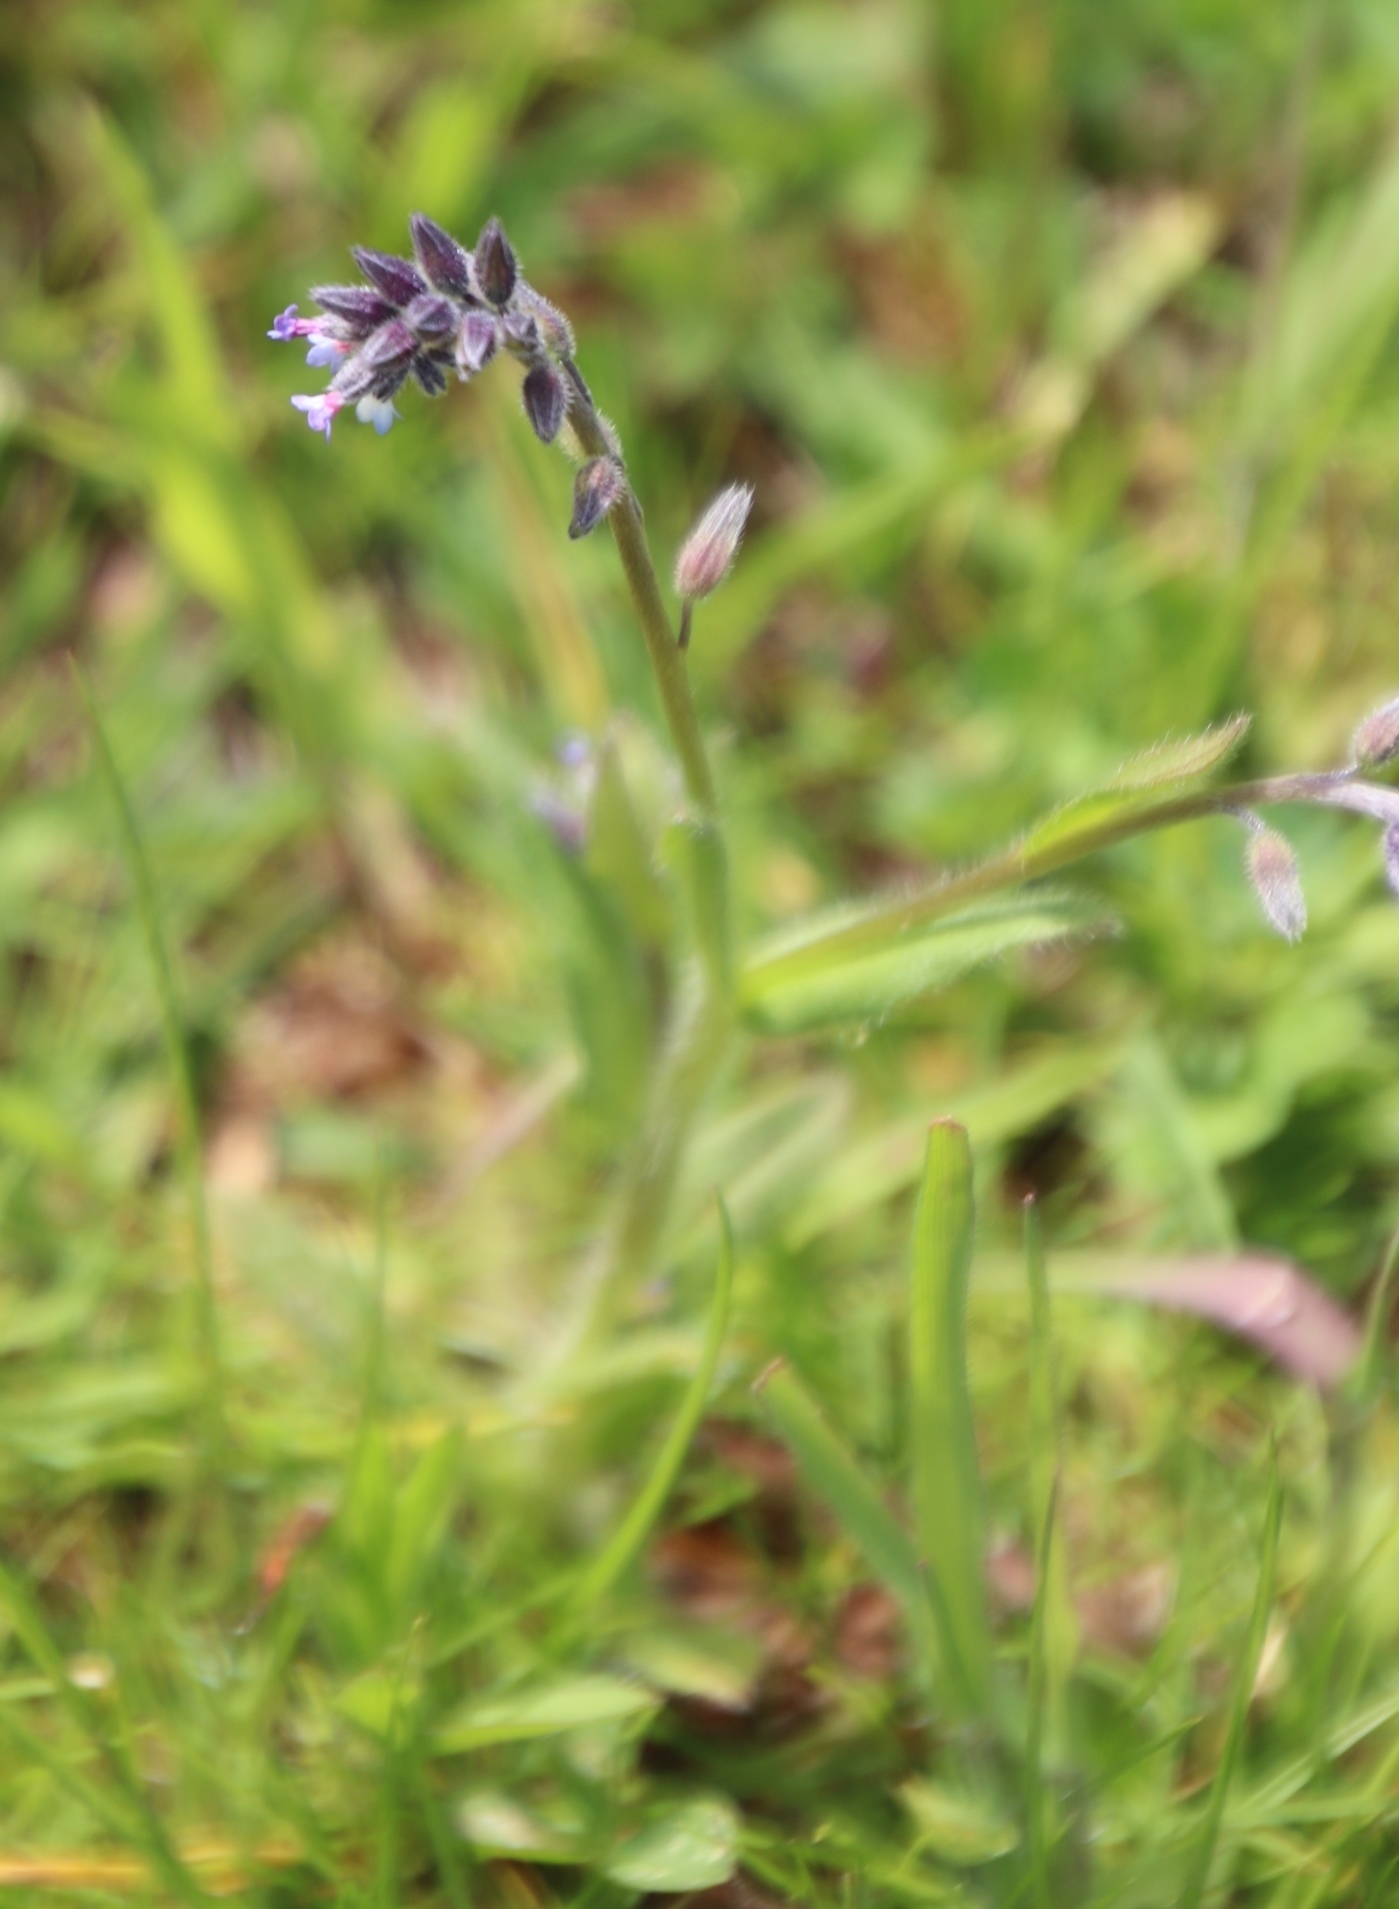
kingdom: Plantae
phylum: Tracheophyta
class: Magnoliopsida
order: Boraginales
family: Boraginaceae
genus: Myosotis
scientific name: Myosotis discolor
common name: Changing forget-me-not
